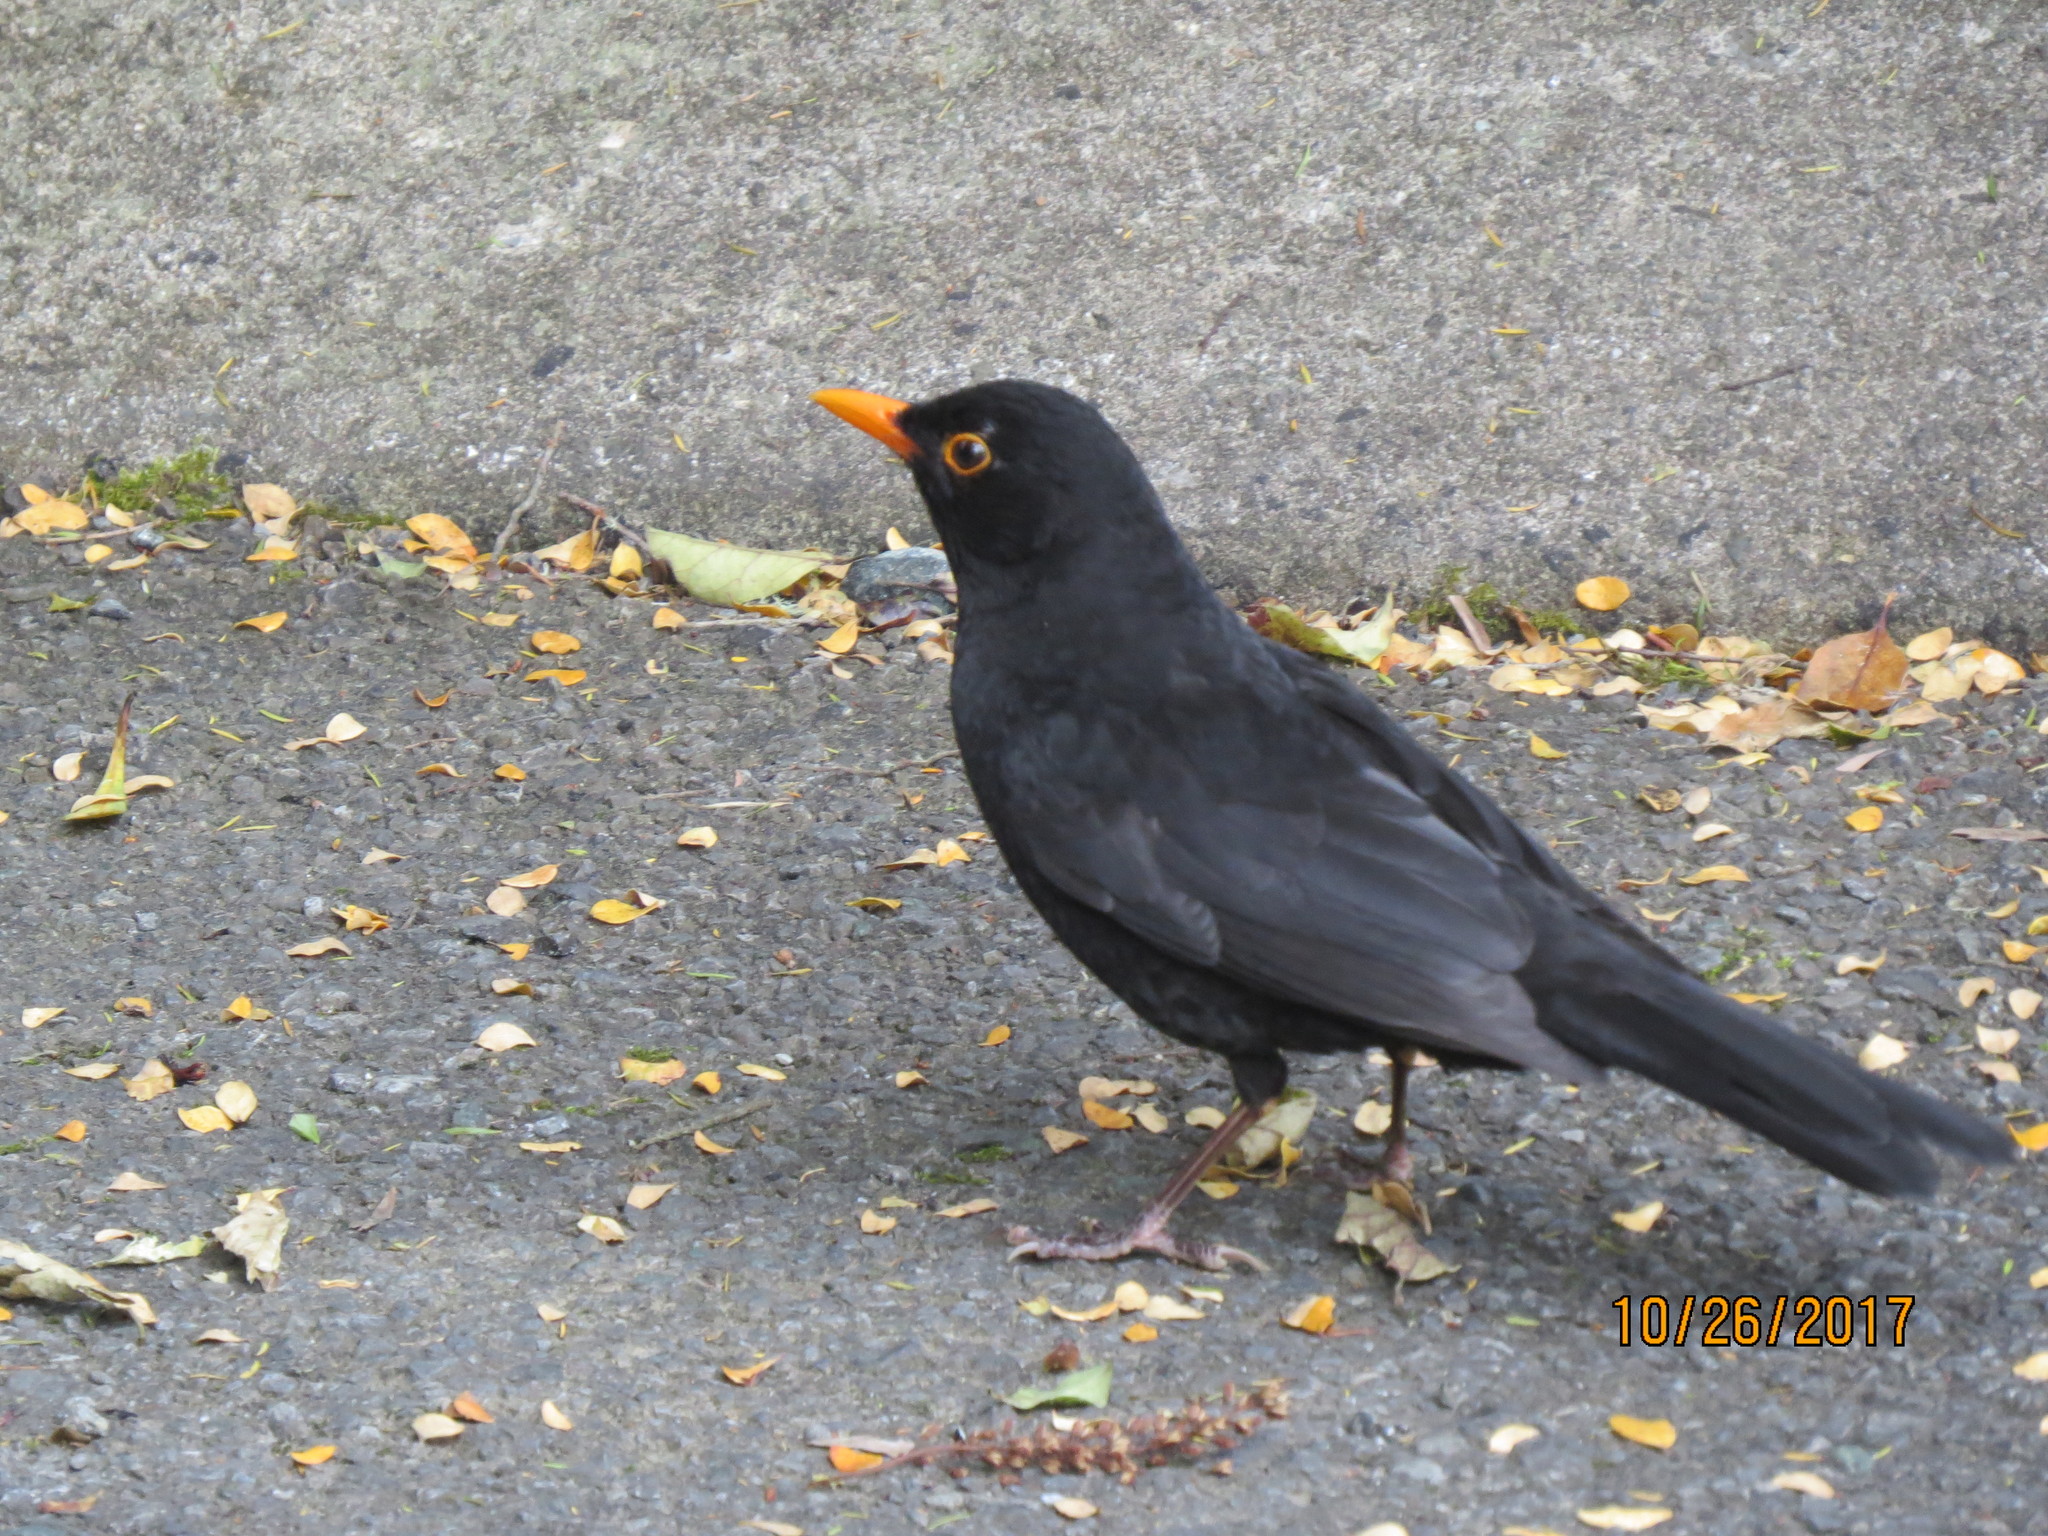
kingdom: Animalia
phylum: Chordata
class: Aves
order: Passeriformes
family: Turdidae
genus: Turdus
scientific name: Turdus merula
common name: Common blackbird
